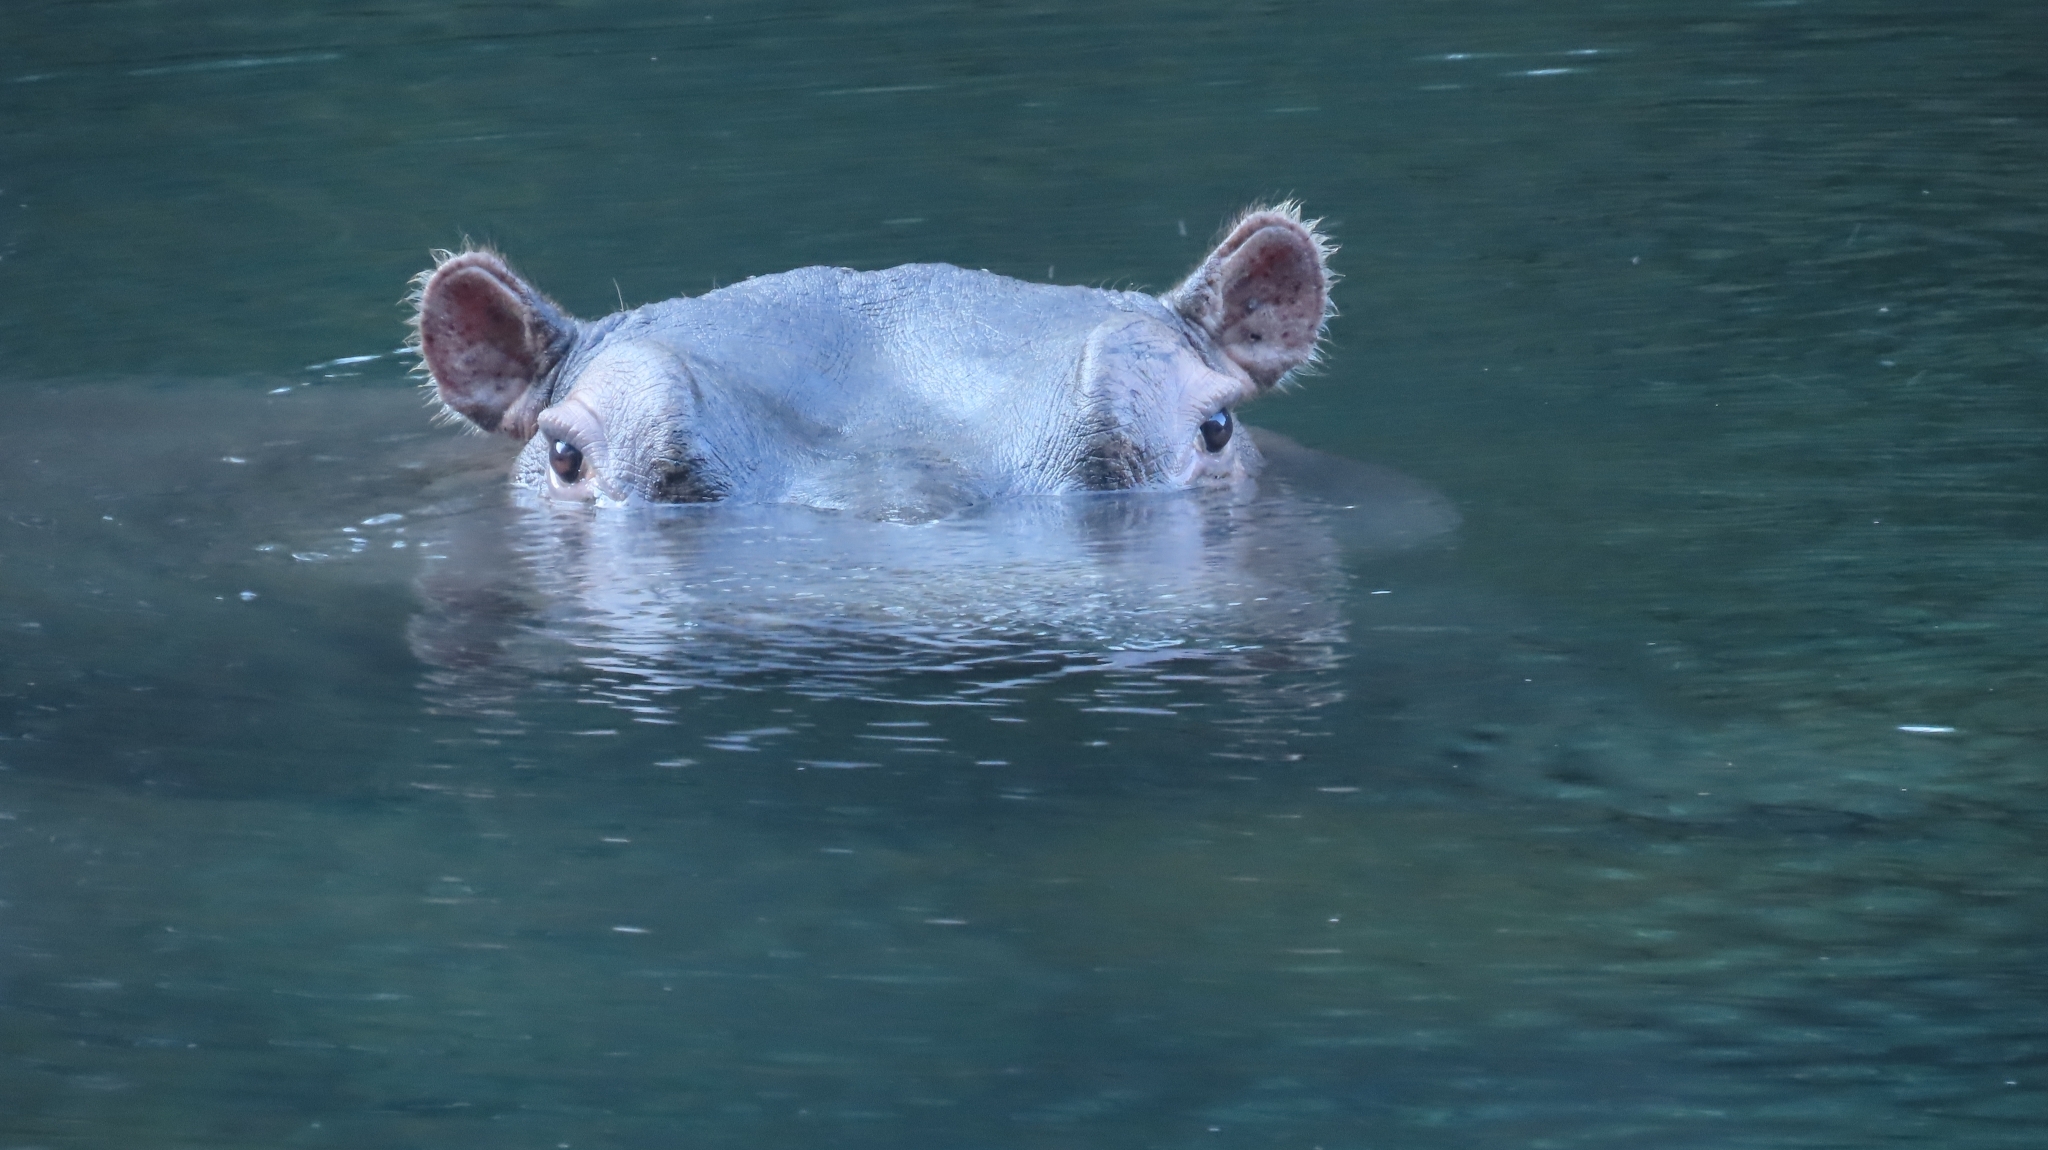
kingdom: Animalia
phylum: Chordata
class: Mammalia
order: Artiodactyla
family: Hippopotamidae
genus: Hippopotamus
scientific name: Hippopotamus amphibius
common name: Common hippopotamus
